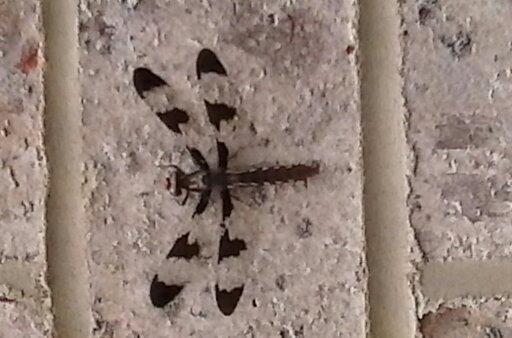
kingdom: Animalia
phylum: Arthropoda
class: Insecta
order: Odonata
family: Libellulidae
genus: Plathemis
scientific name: Plathemis lydia
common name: Common whitetail
